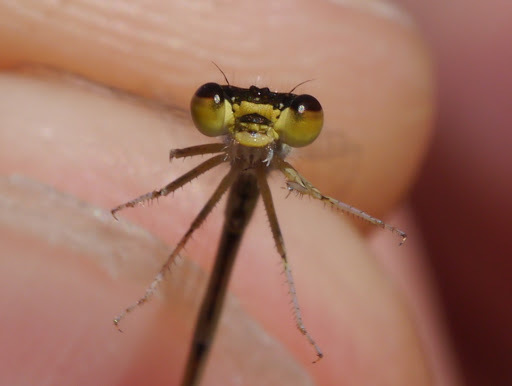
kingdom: Animalia
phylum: Arthropoda
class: Insecta
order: Odonata
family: Coenagrionidae
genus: Ischnura
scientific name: Ischnura hastata
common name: Citrine forktail
